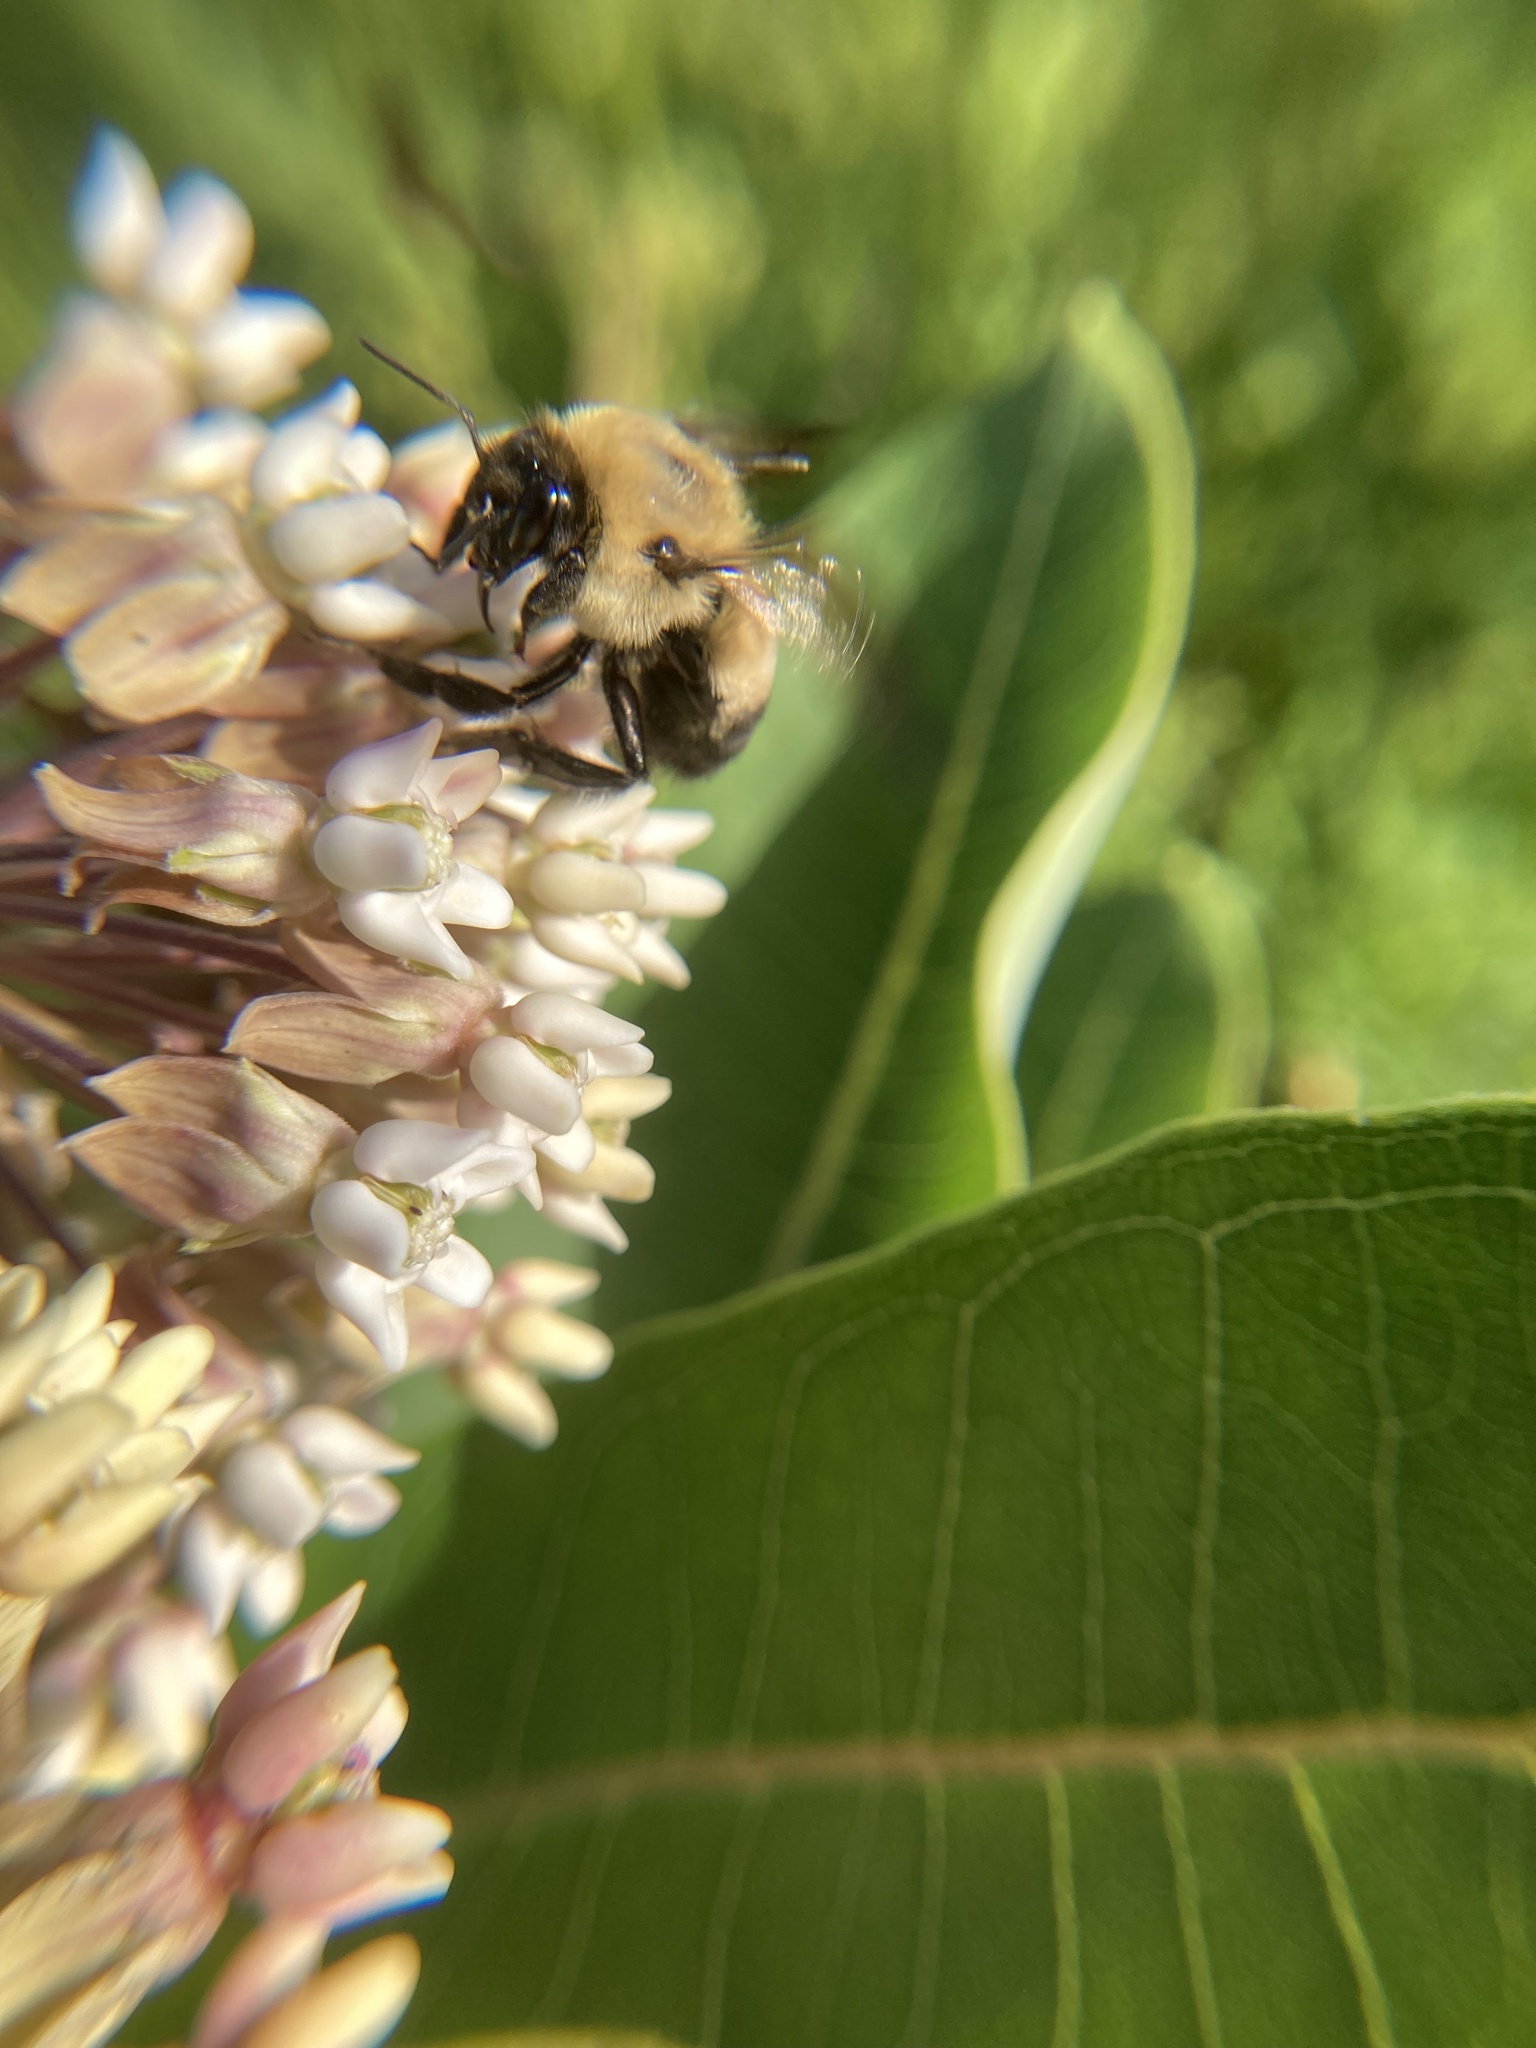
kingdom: Animalia
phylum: Arthropoda
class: Insecta
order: Hymenoptera
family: Apidae
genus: Bombus
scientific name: Bombus griseocollis
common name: Brown-belted bumble bee
